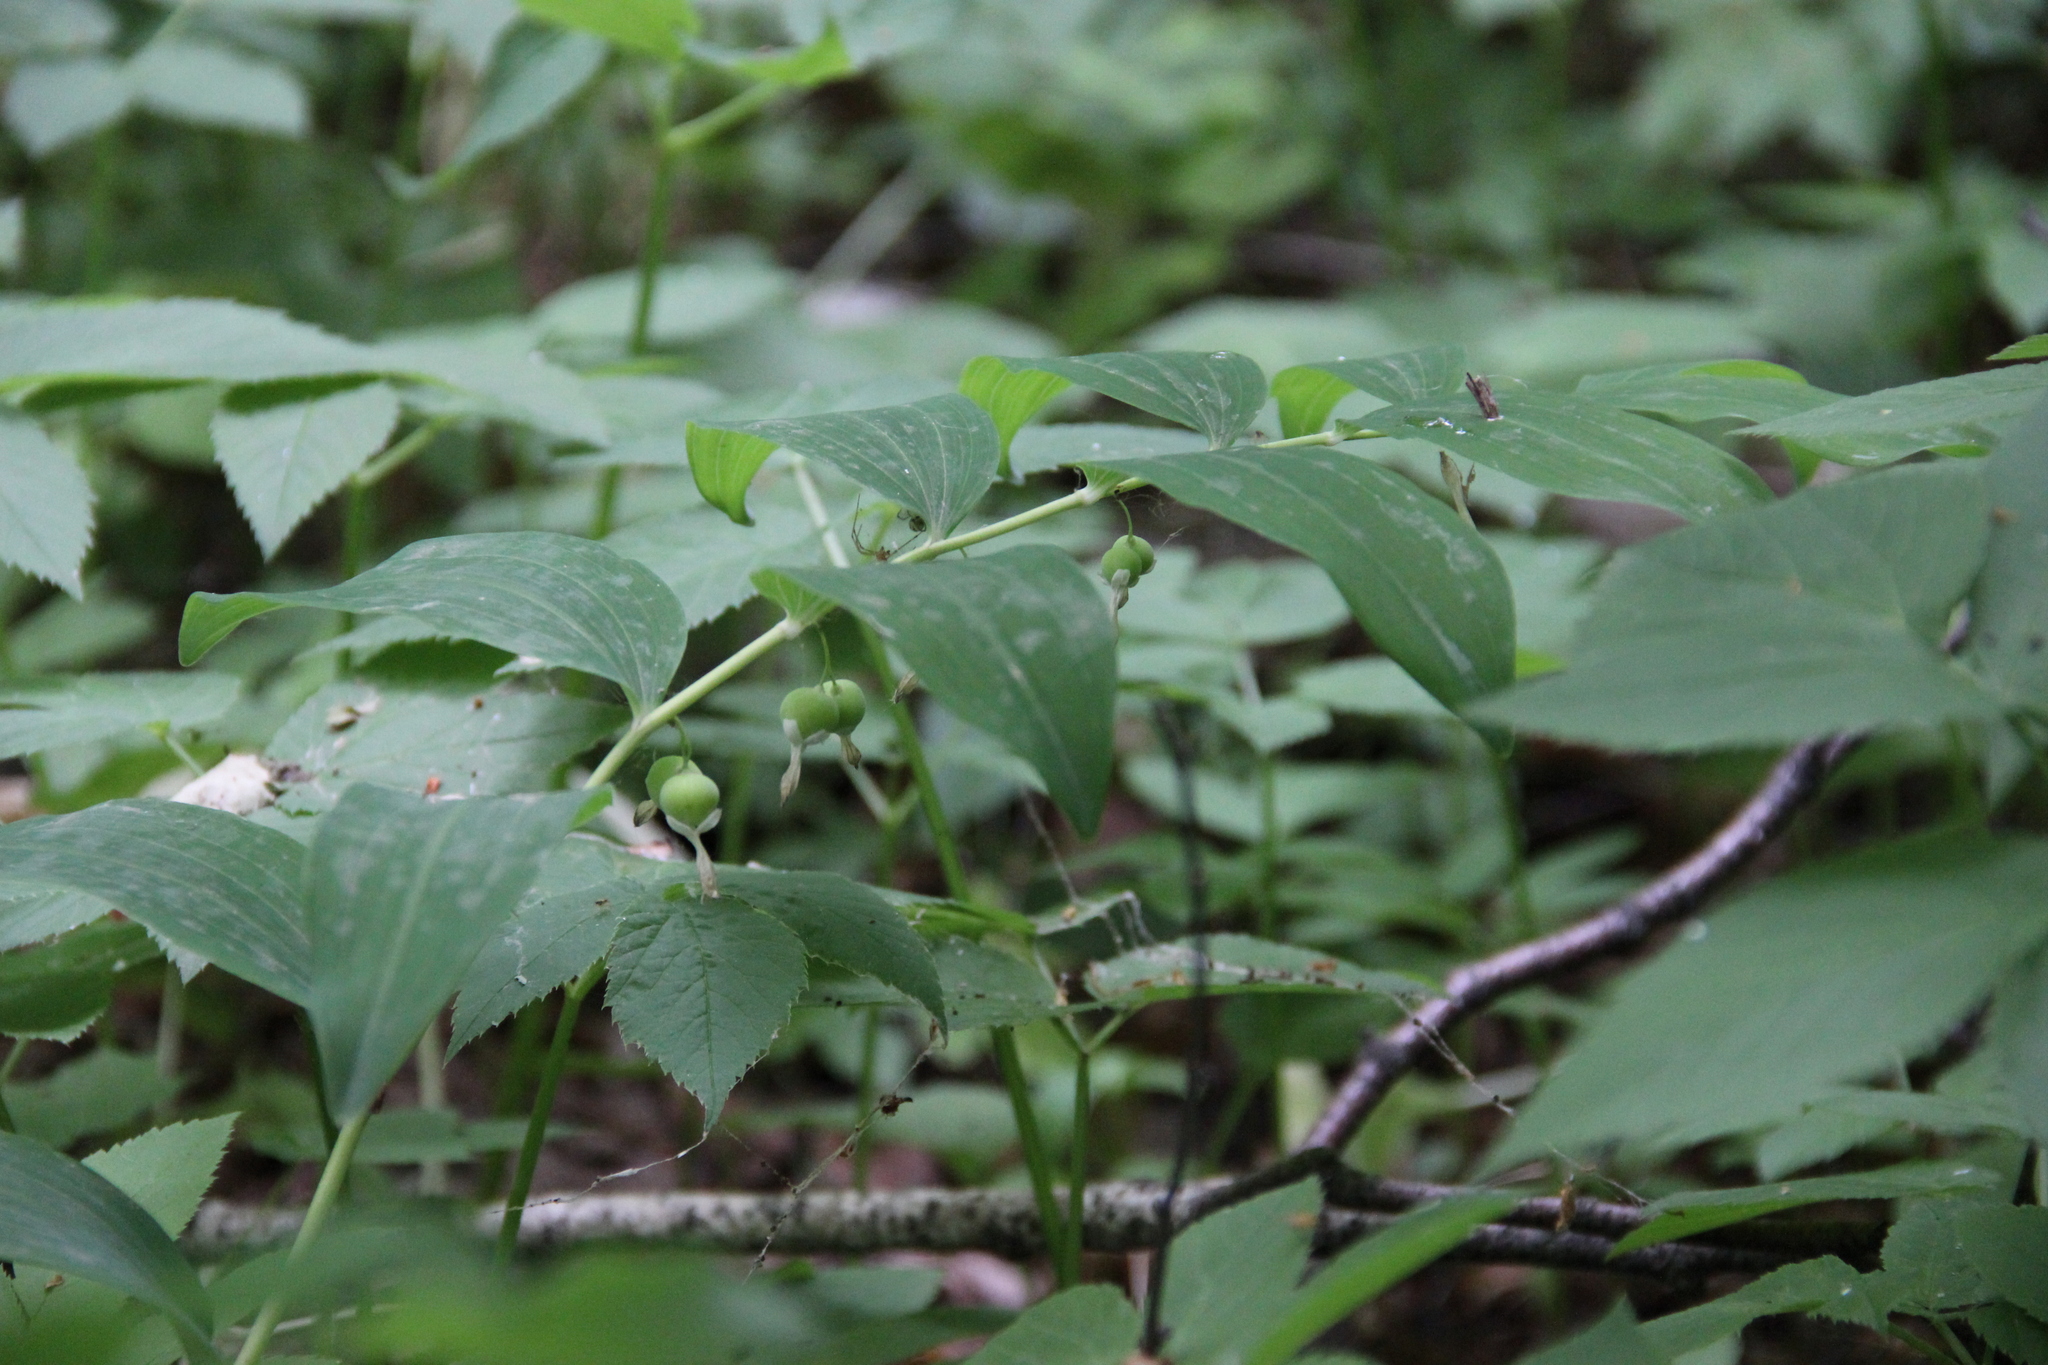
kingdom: Plantae
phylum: Tracheophyta
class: Liliopsida
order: Asparagales
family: Asparagaceae
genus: Polygonatum
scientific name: Polygonatum multiflorum
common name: Solomon's-seal
